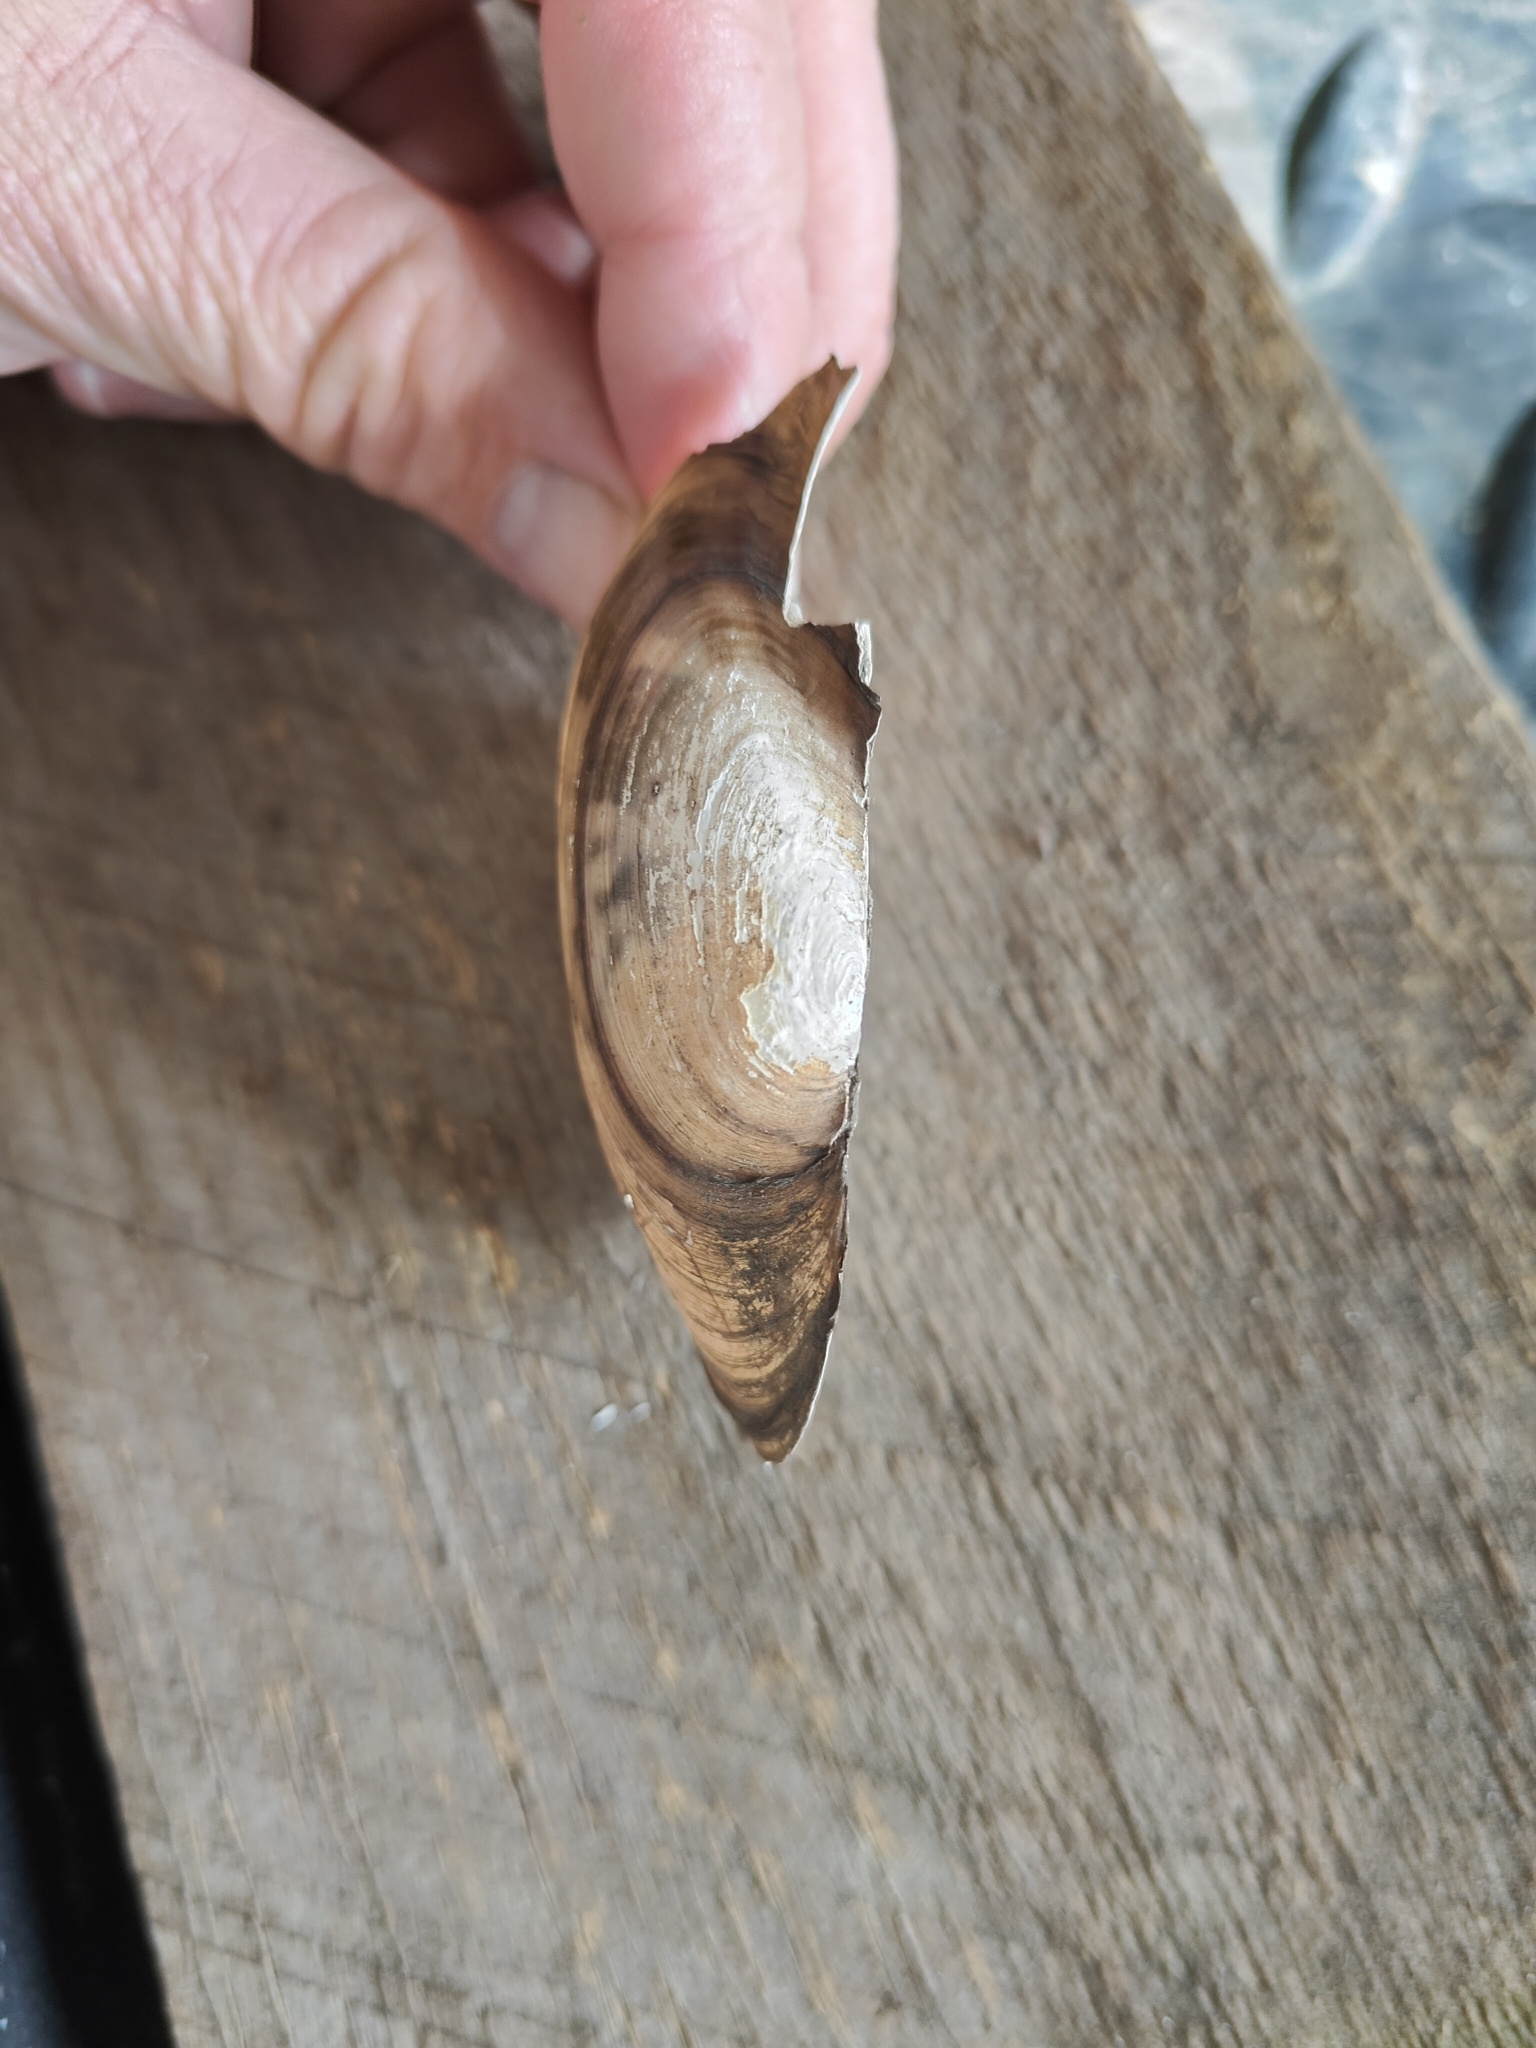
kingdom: Animalia
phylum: Mollusca
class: Bivalvia
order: Unionida
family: Unionidae
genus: Utterbackia
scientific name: Utterbackia imbecillis
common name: Paper pondshell
